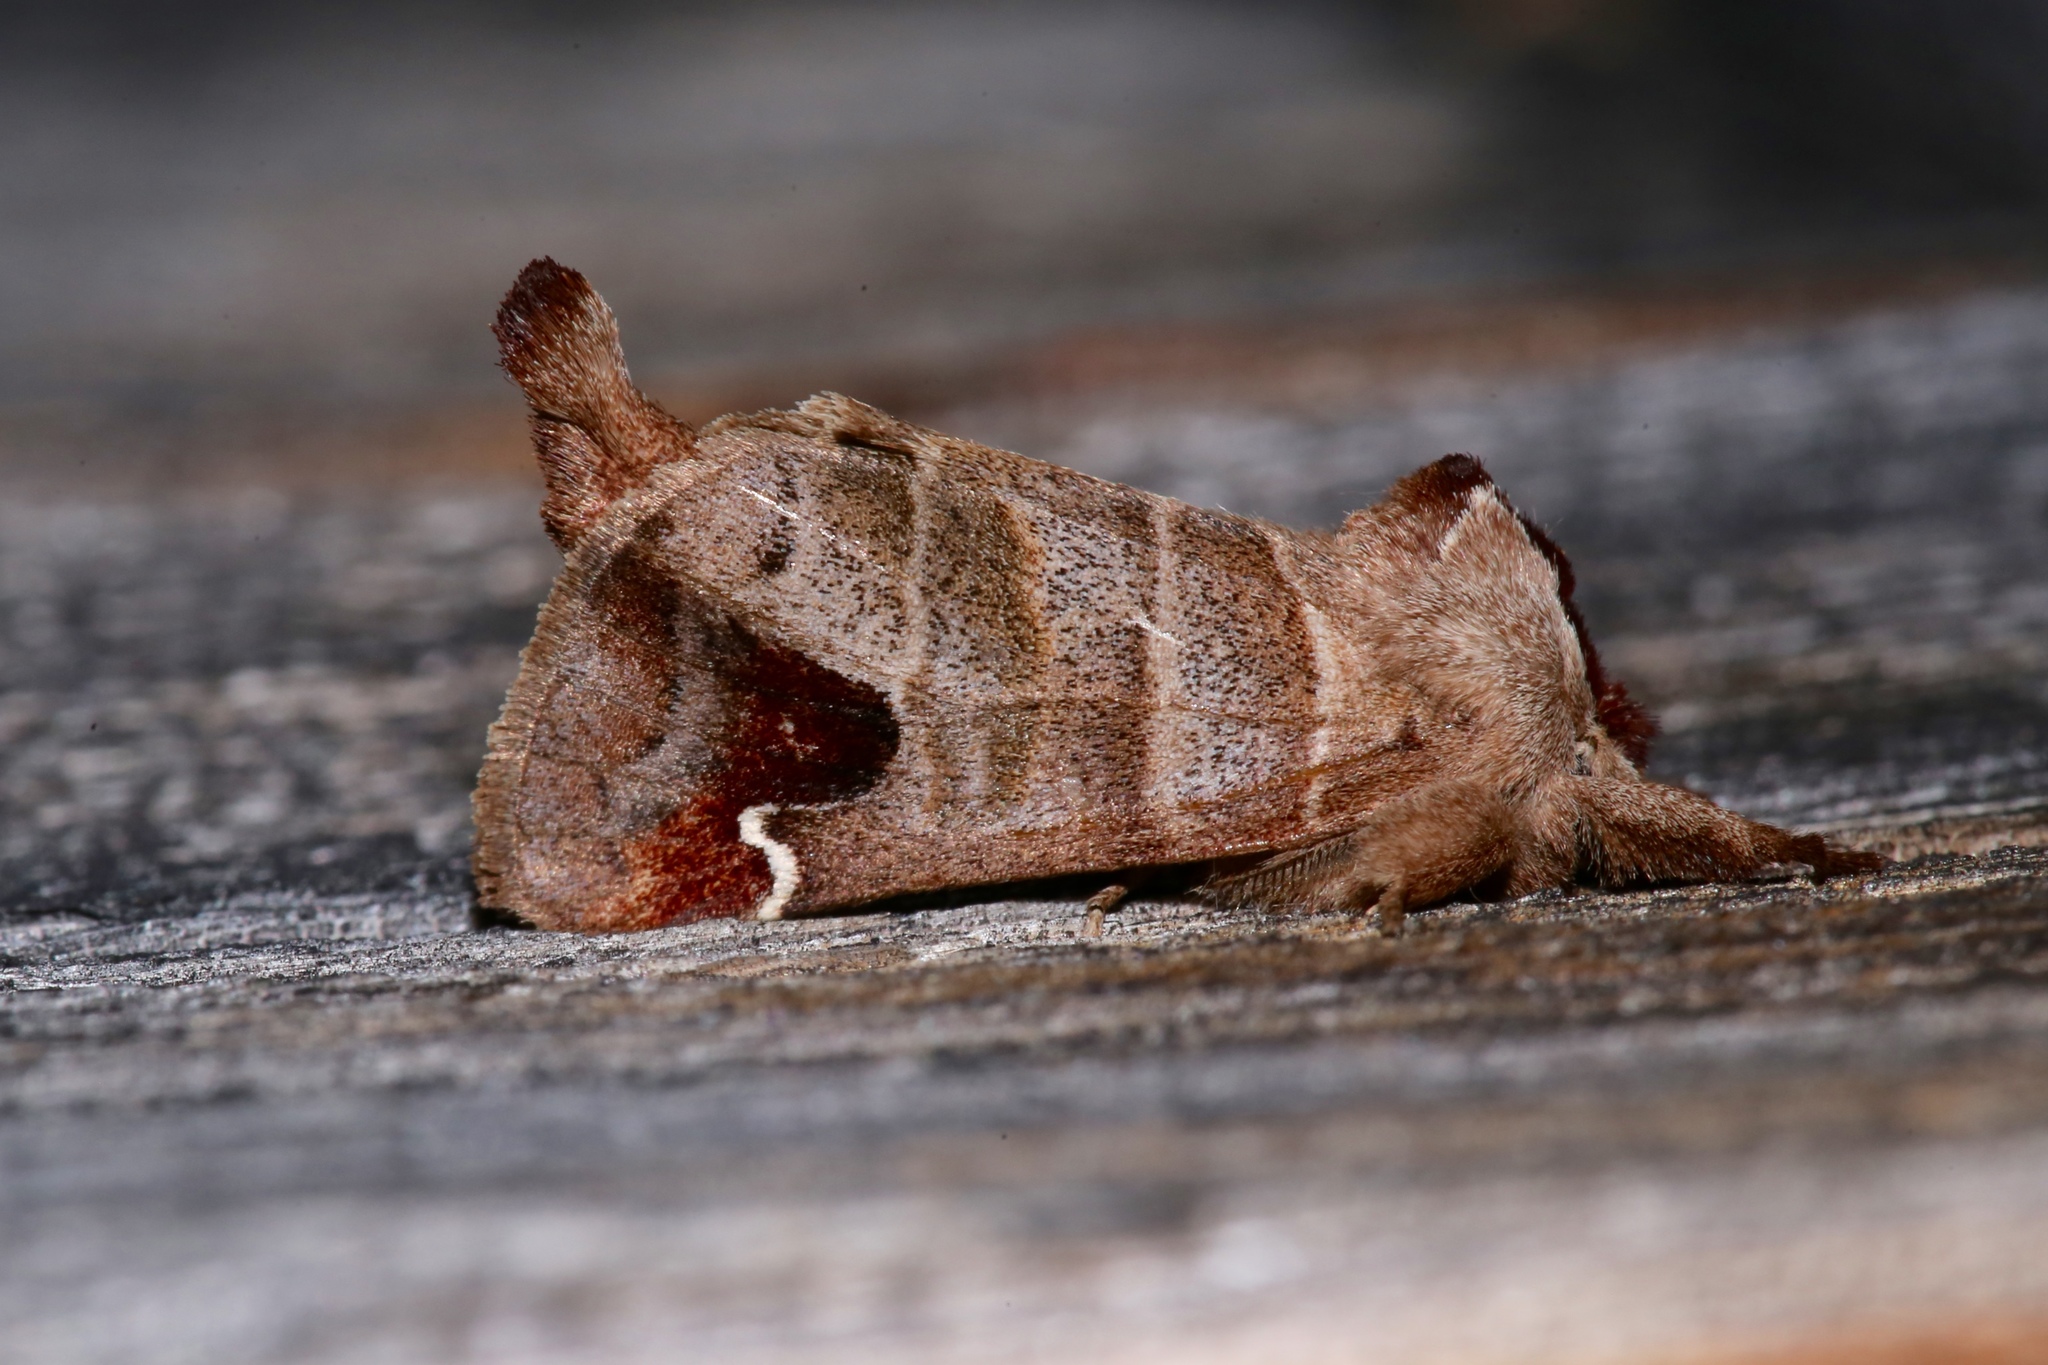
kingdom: Animalia
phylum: Arthropoda
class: Insecta
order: Lepidoptera
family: Notodontidae
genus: Clostera
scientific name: Clostera albosigma
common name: Sigmoid prominent
